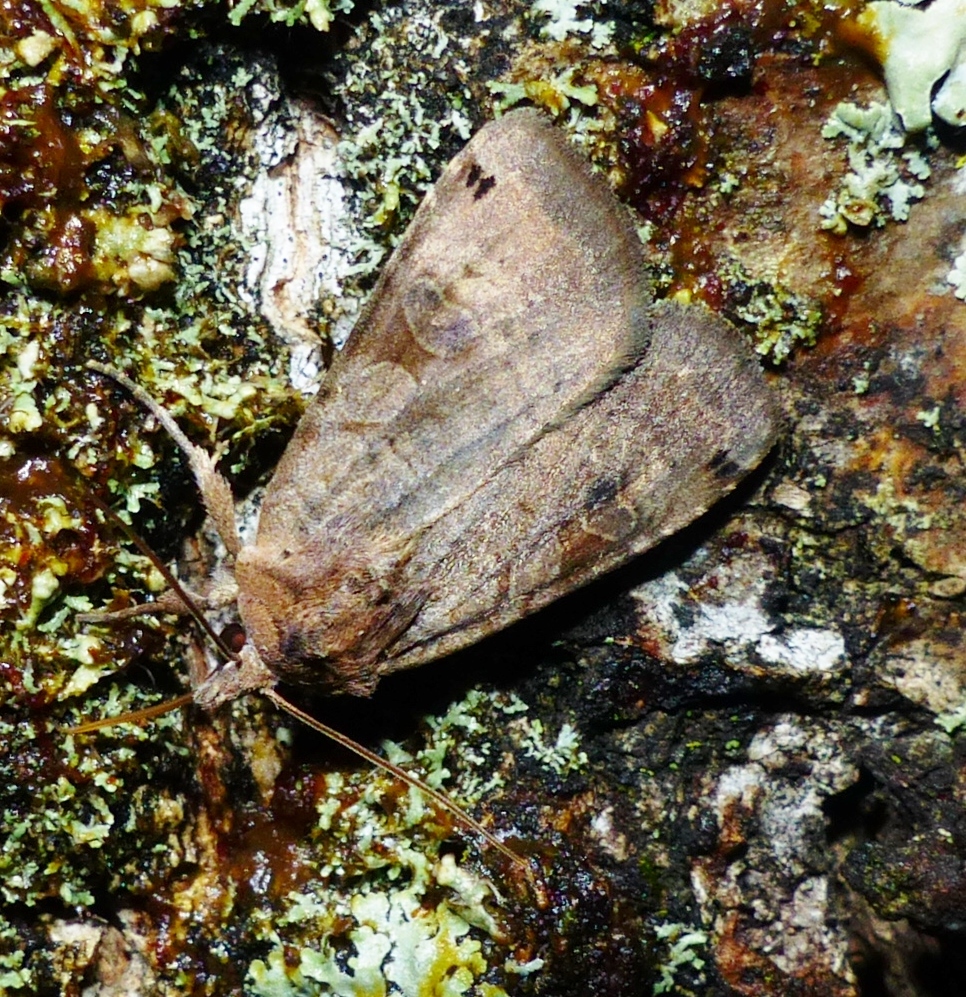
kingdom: Animalia
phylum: Arthropoda
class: Insecta
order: Lepidoptera
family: Noctuidae
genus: Xestia
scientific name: Xestia smithii
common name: Smith's dart
